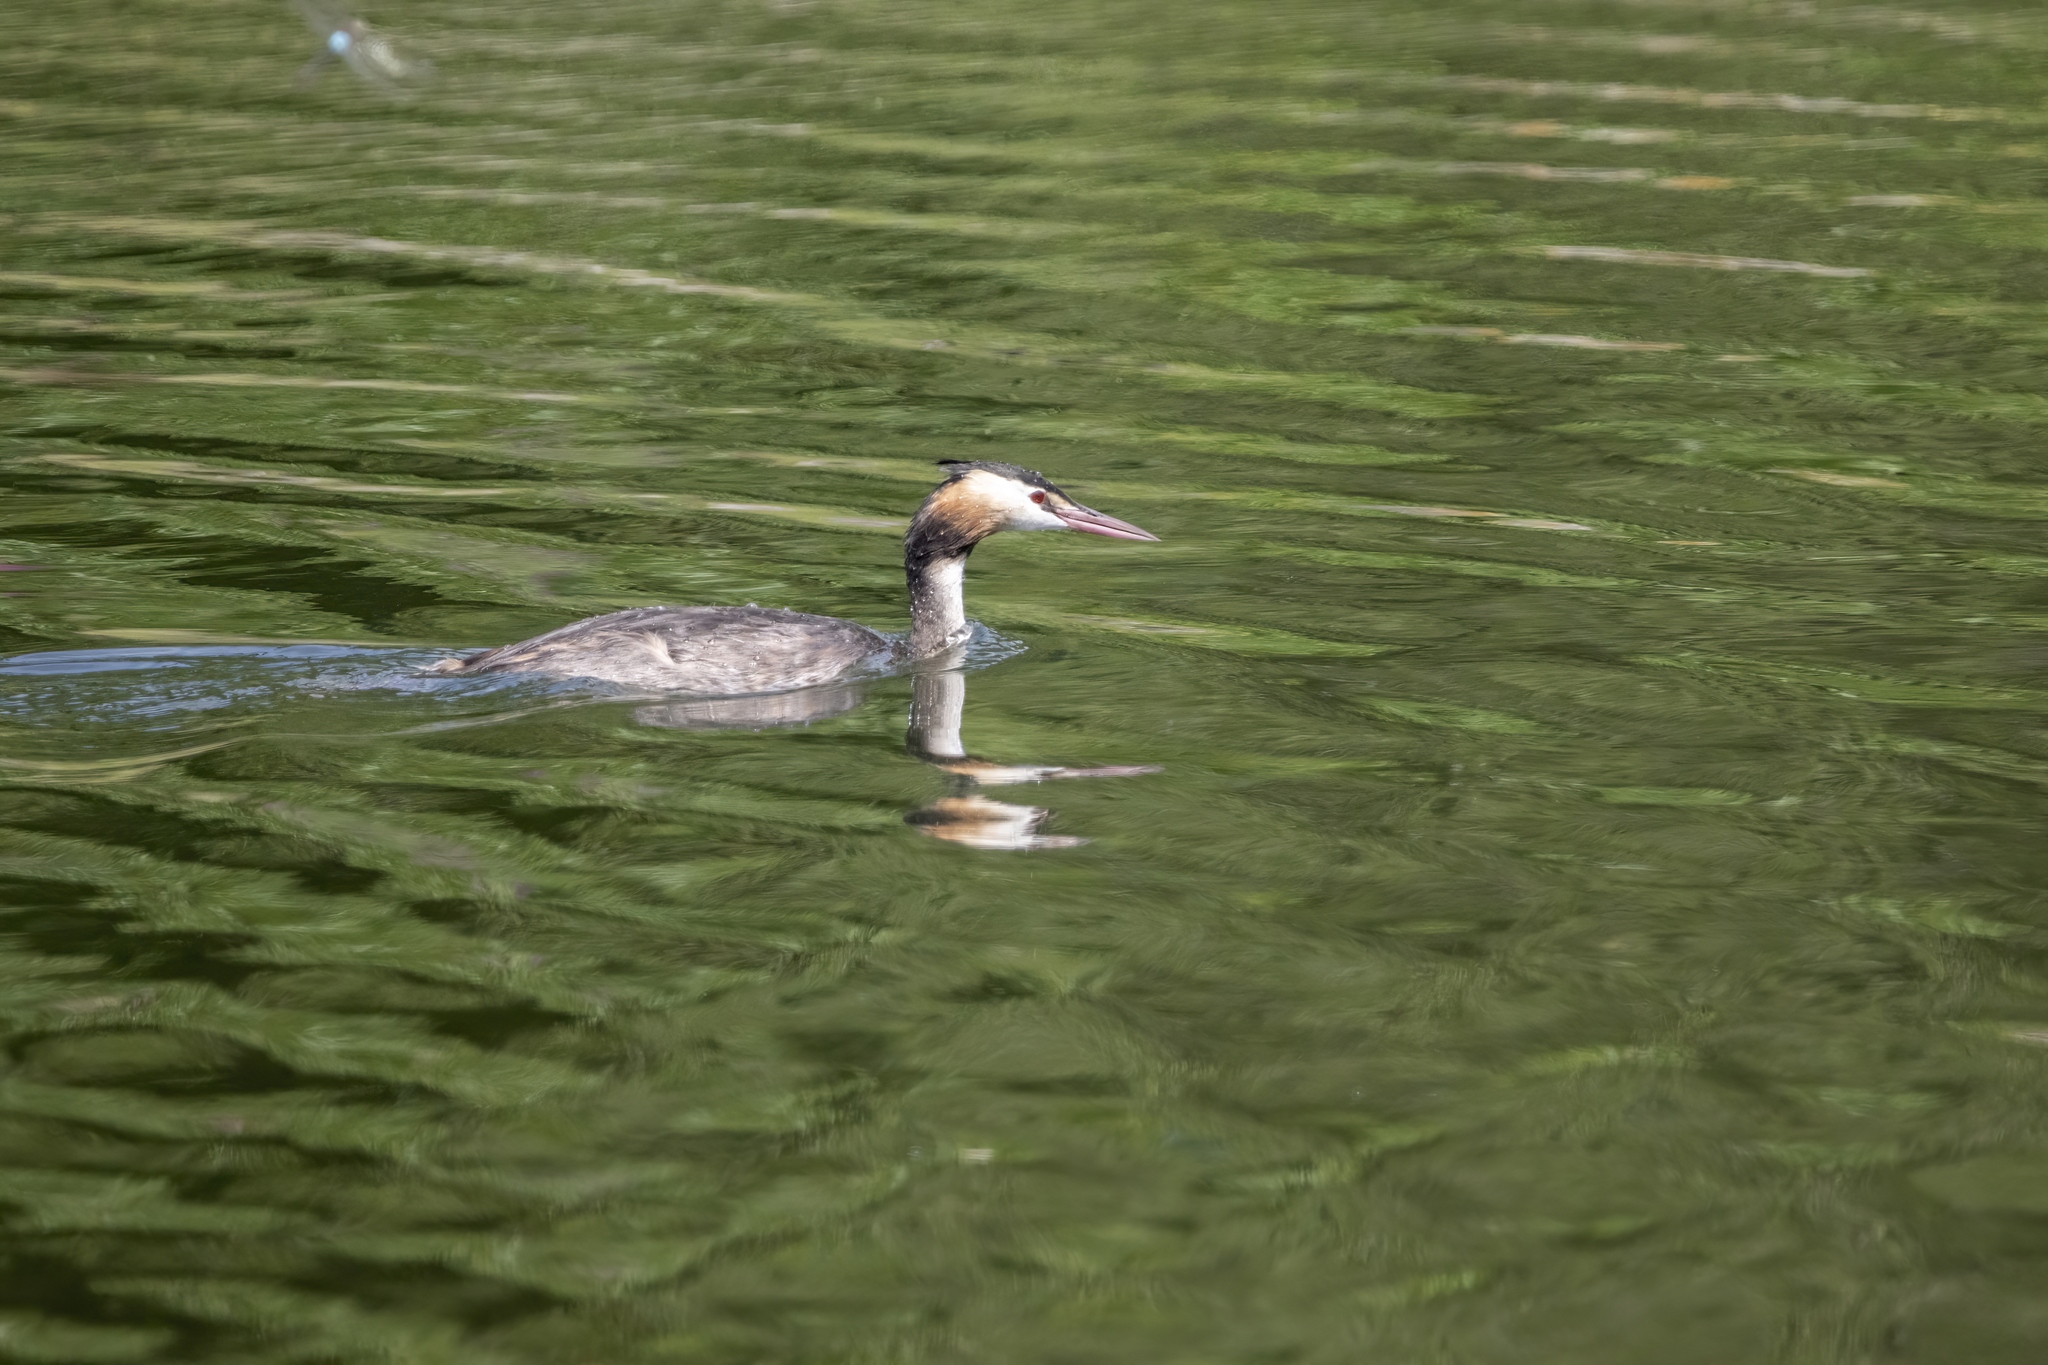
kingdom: Animalia
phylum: Chordata
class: Aves
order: Podicipediformes
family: Podicipedidae
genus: Podiceps
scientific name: Podiceps cristatus
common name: Great crested grebe
